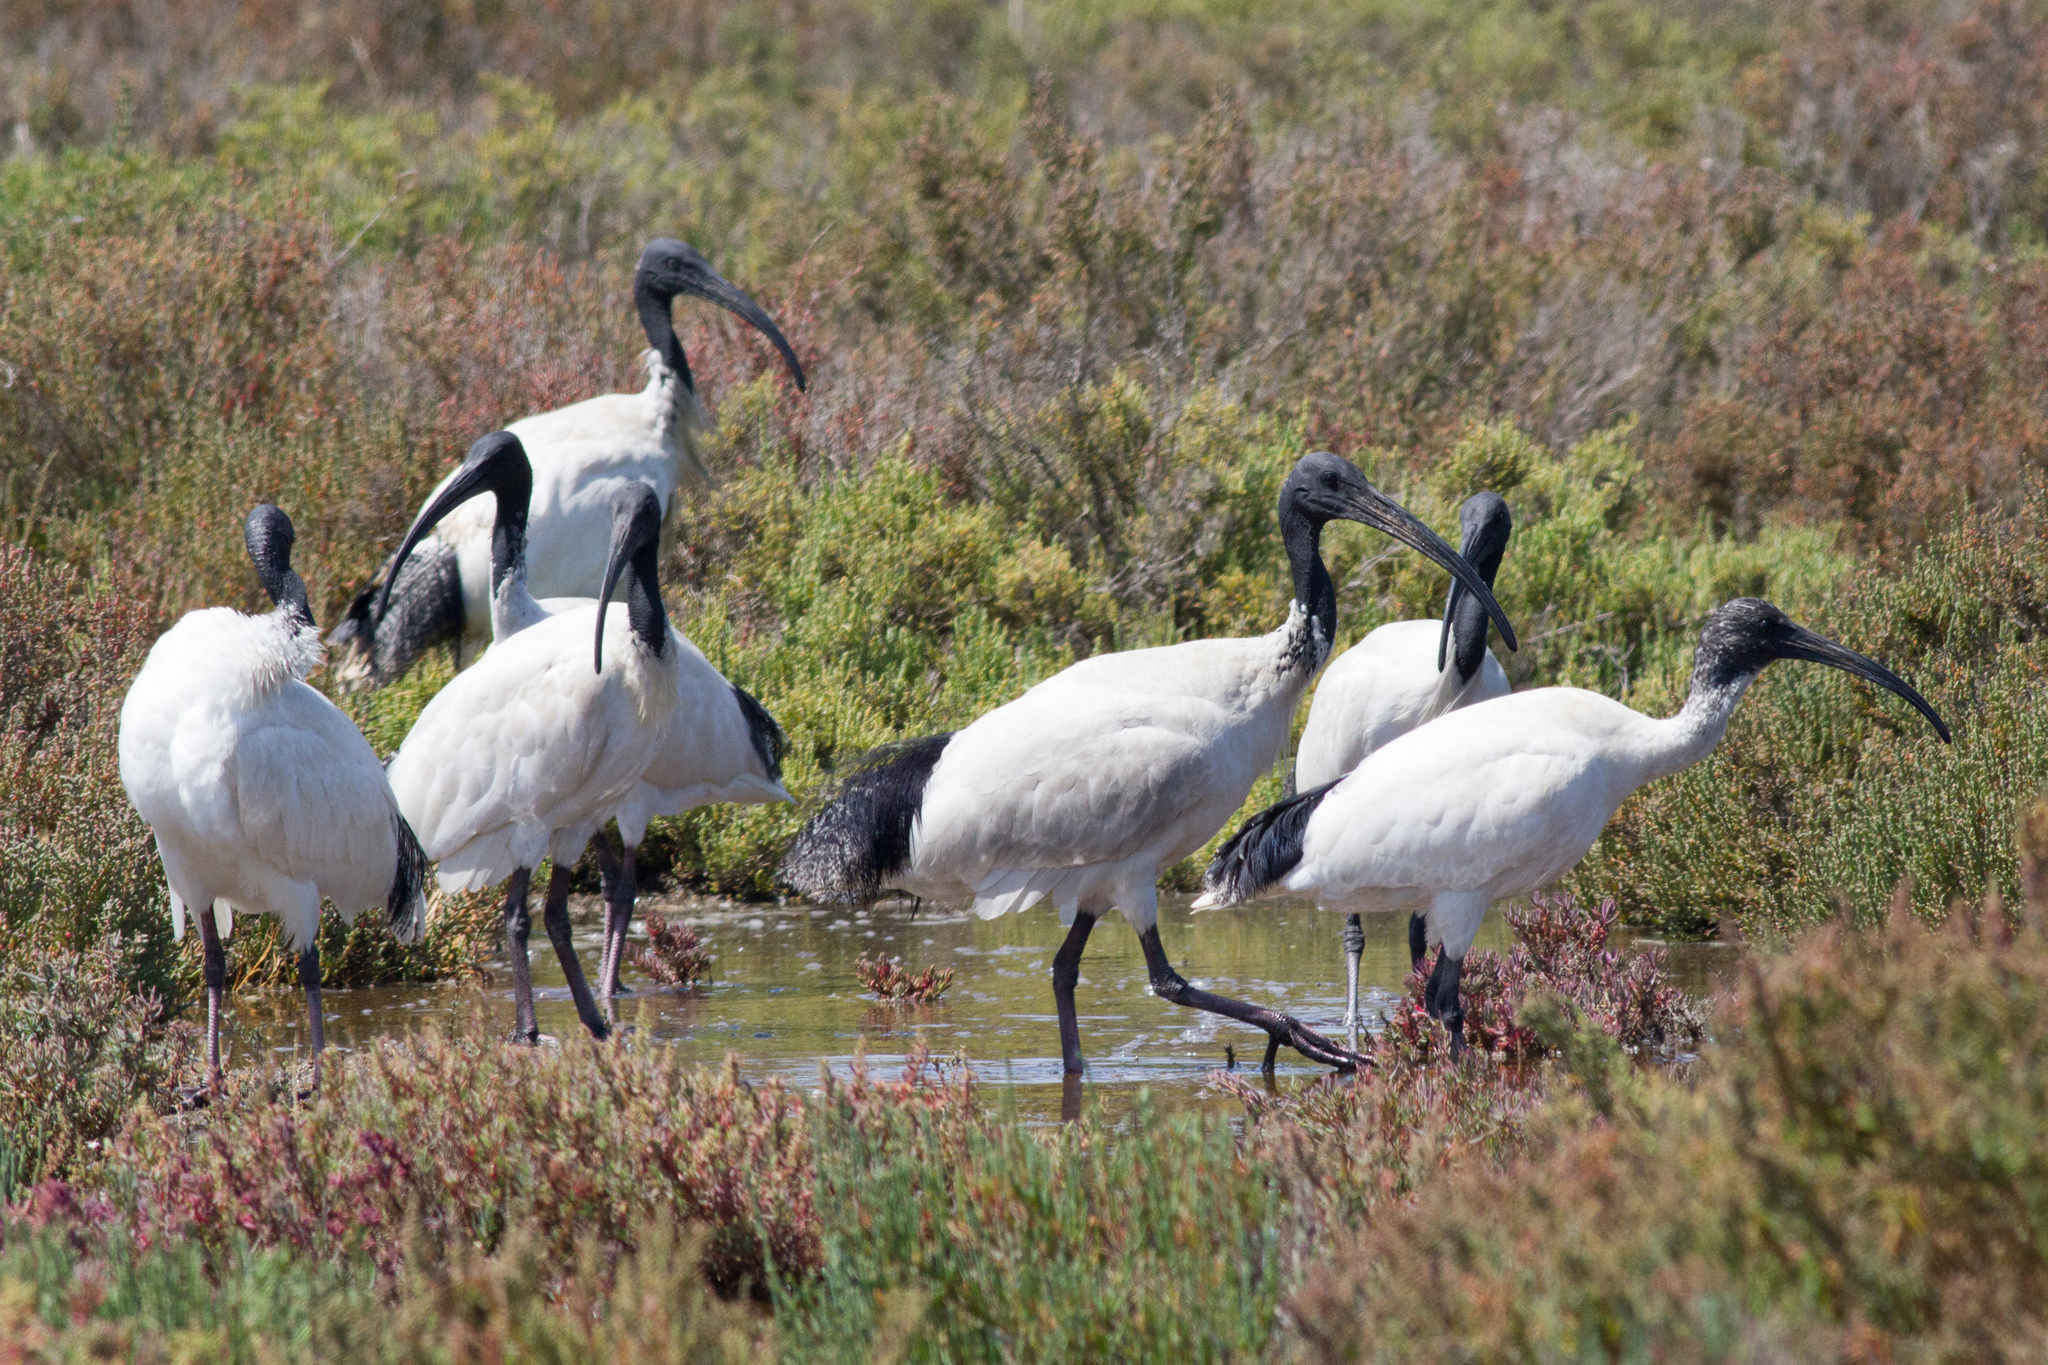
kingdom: Animalia
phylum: Chordata
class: Aves
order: Pelecaniformes
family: Threskiornithidae
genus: Threskiornis
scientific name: Threskiornis molucca
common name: Australian white ibis
